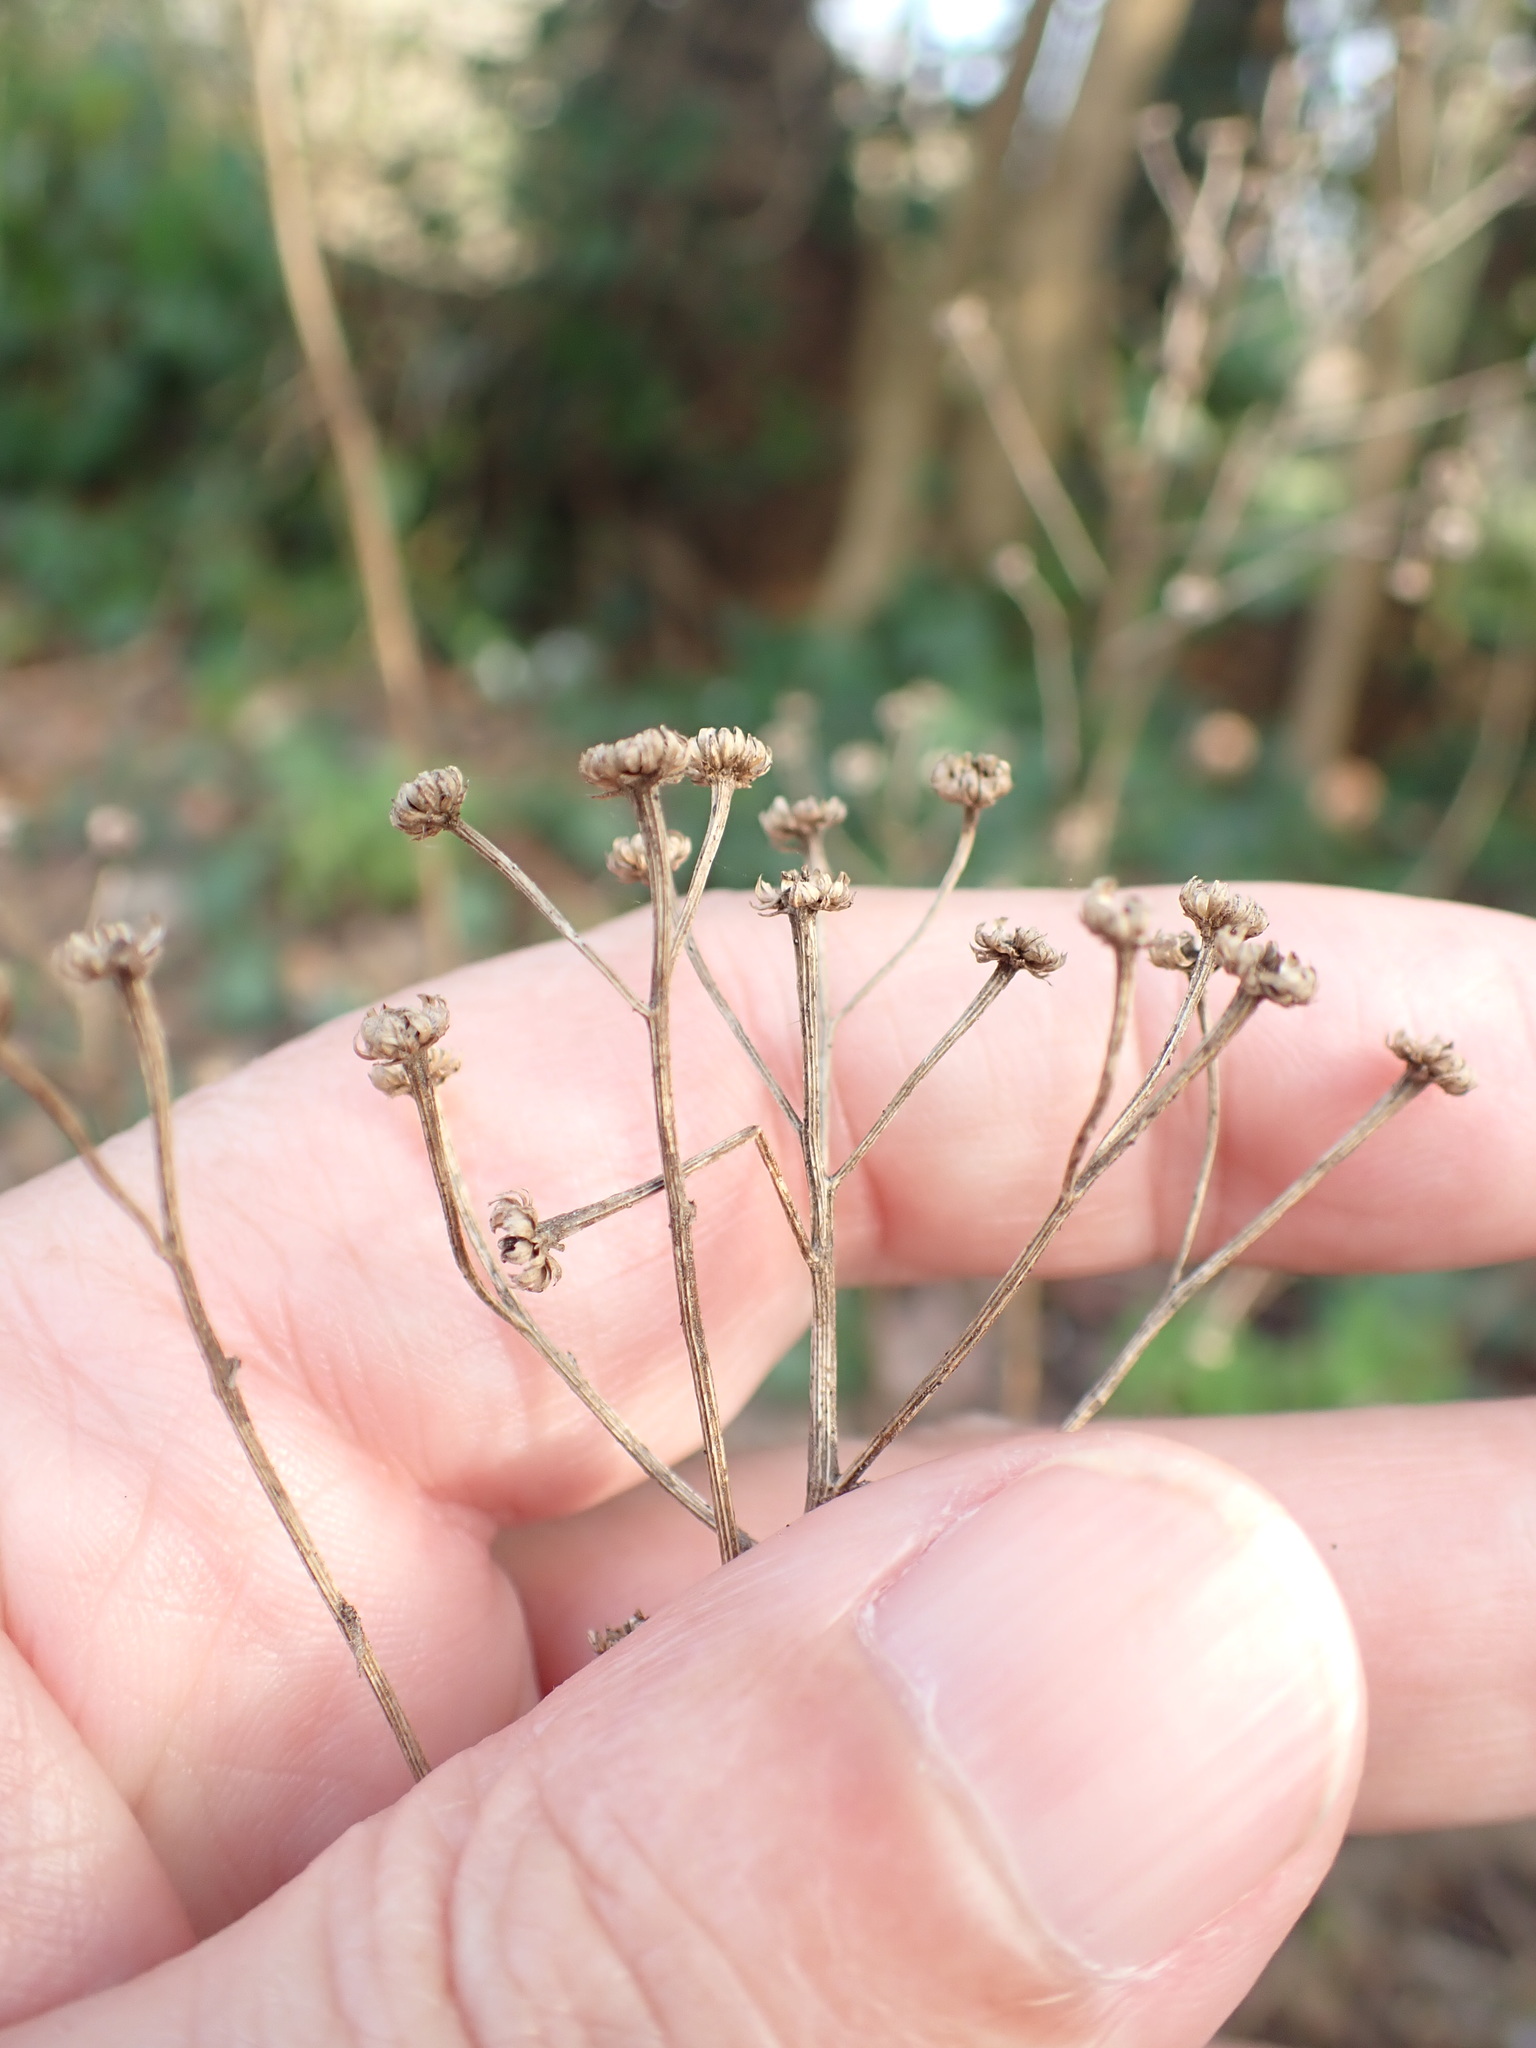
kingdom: Plantae
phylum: Tracheophyta
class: Magnoliopsida
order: Asterales
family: Asteraceae
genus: Tanacetum
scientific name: Tanacetum parthenium
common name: Feverfew
